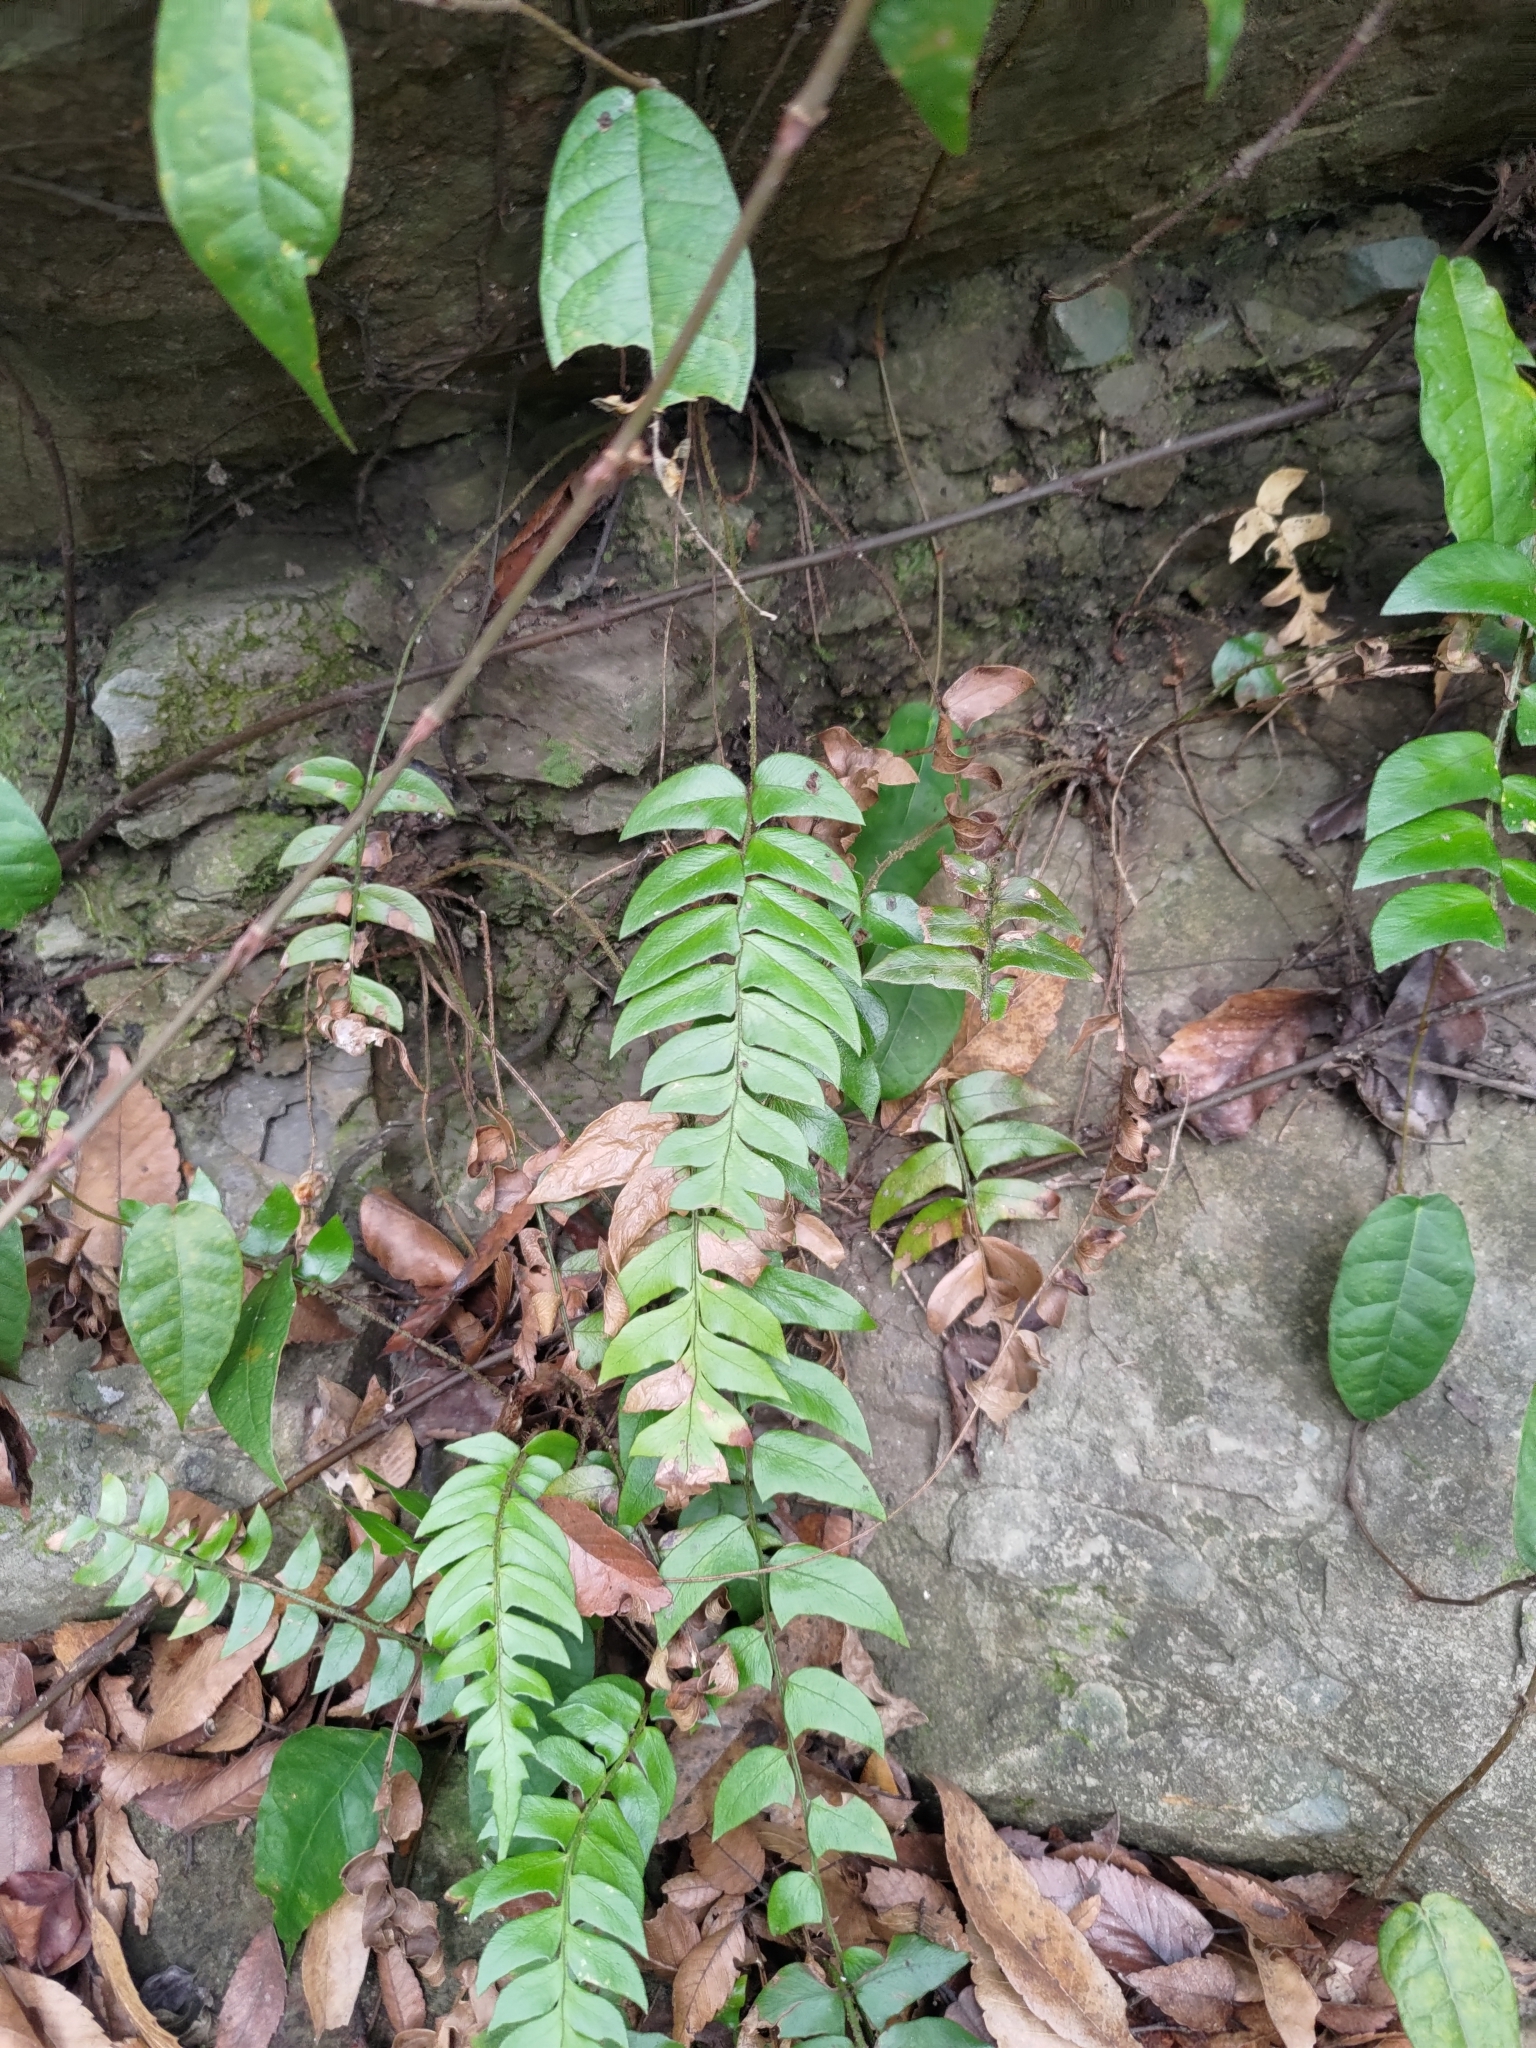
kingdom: Plantae
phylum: Tracheophyta
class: Polypodiopsida
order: Polypodiales
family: Dryopteridaceae
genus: Polystichum
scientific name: Polystichum lepidocaulon
